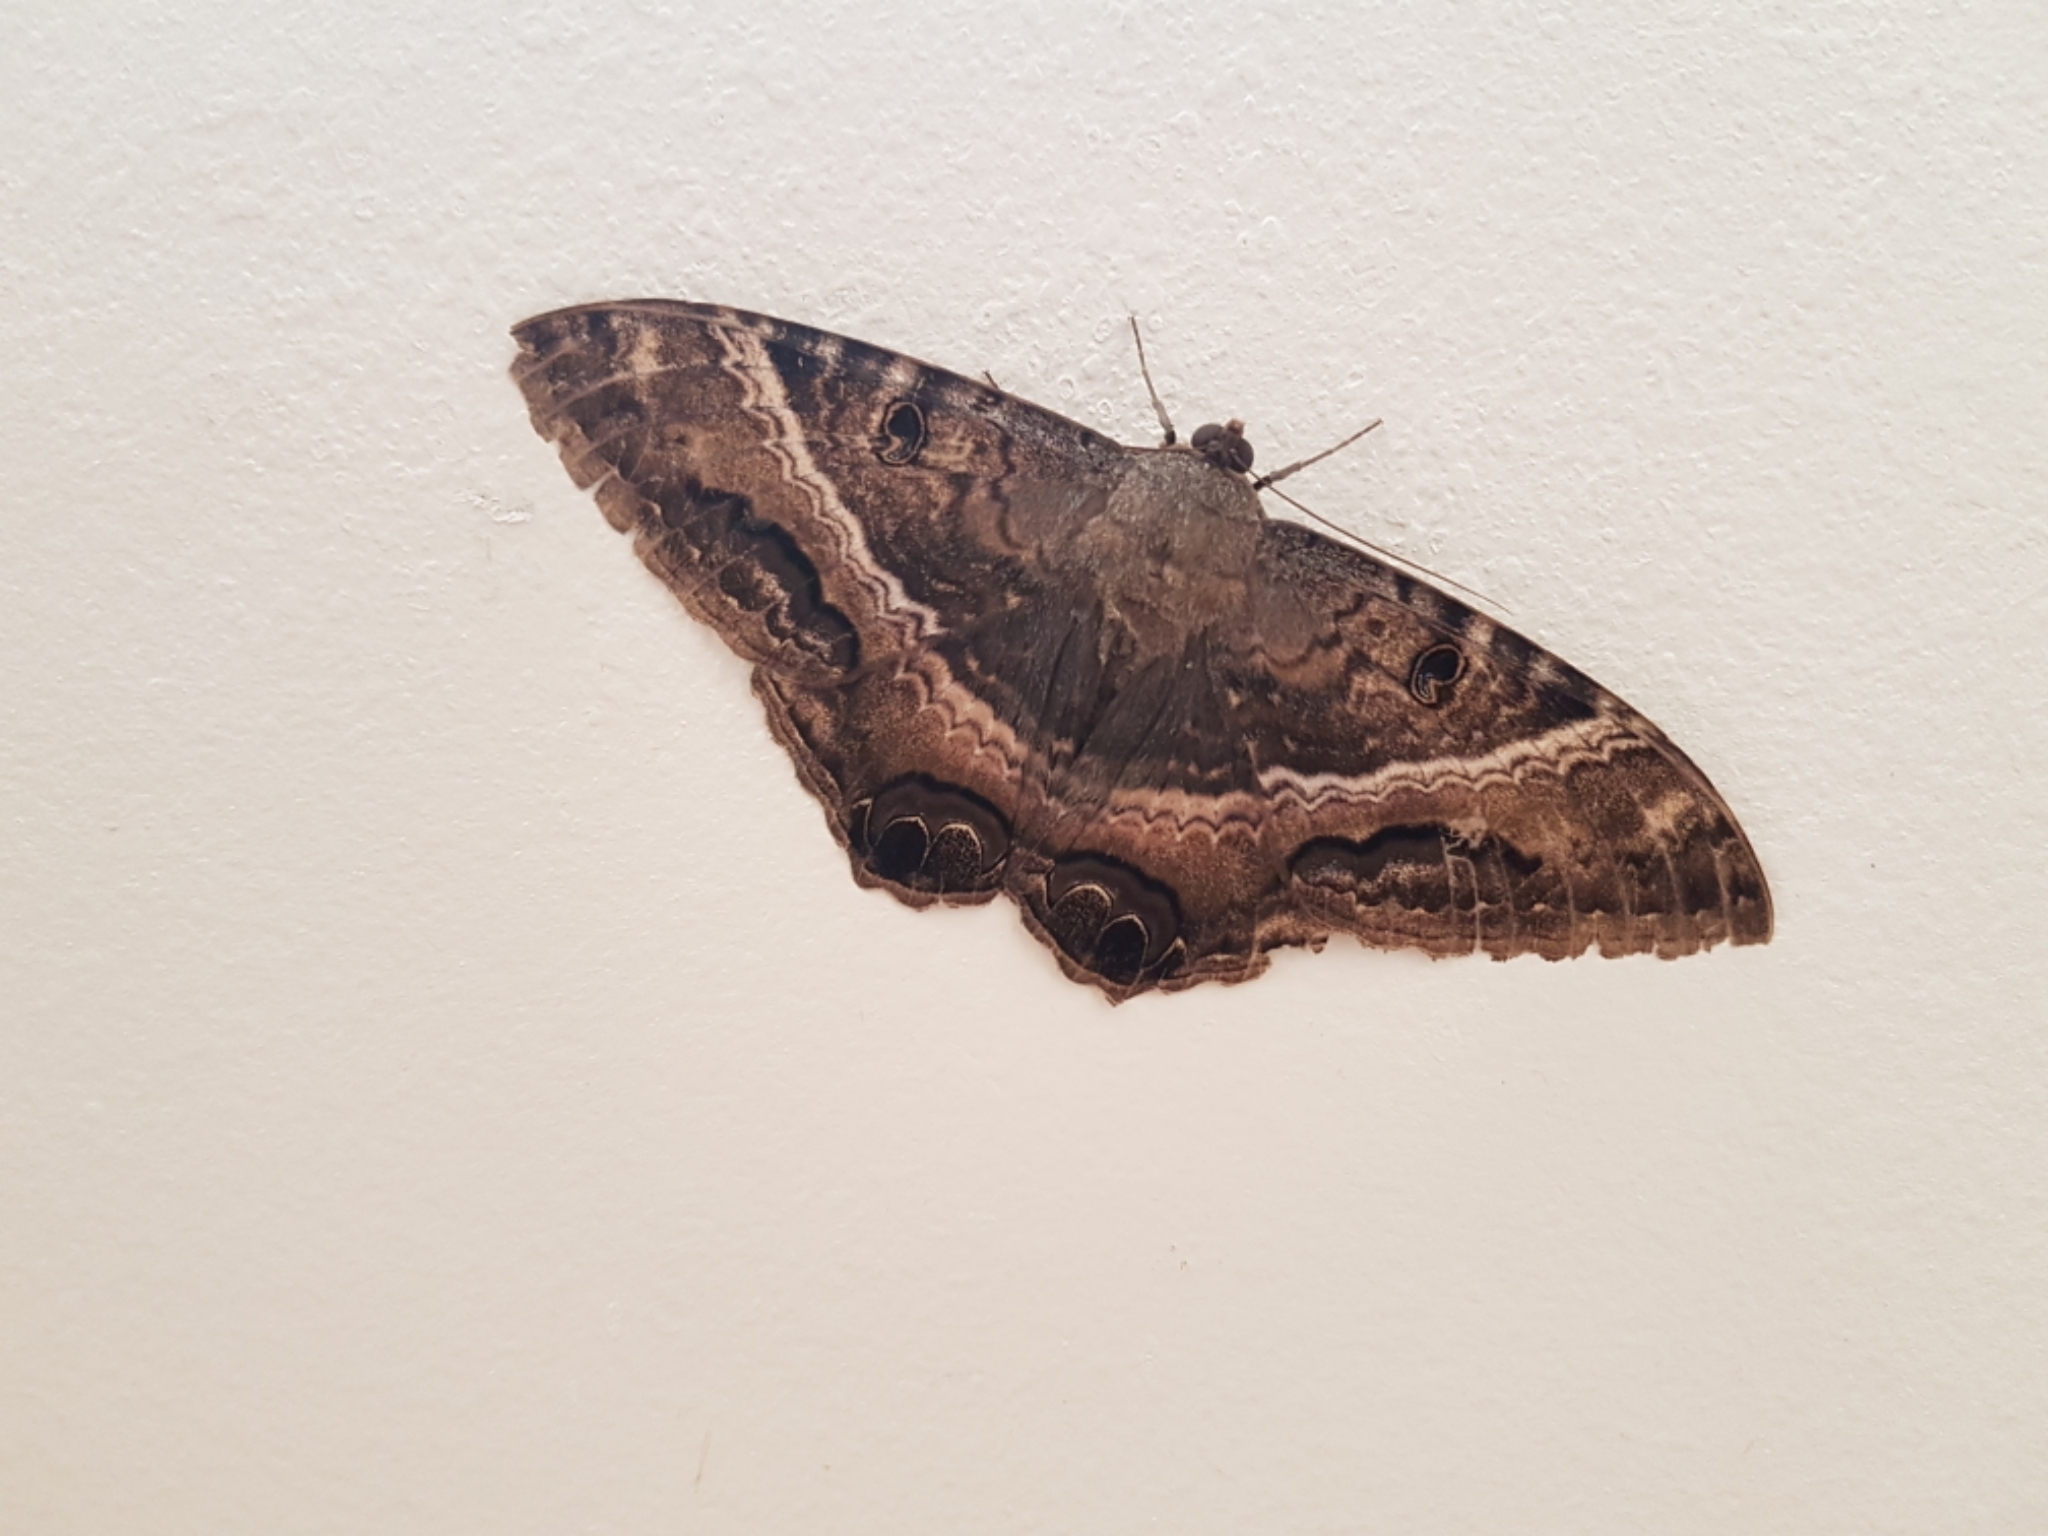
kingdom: Animalia
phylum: Arthropoda
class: Insecta
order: Lepidoptera
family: Erebidae
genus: Ascalapha
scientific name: Ascalapha odorata
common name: Black witch
